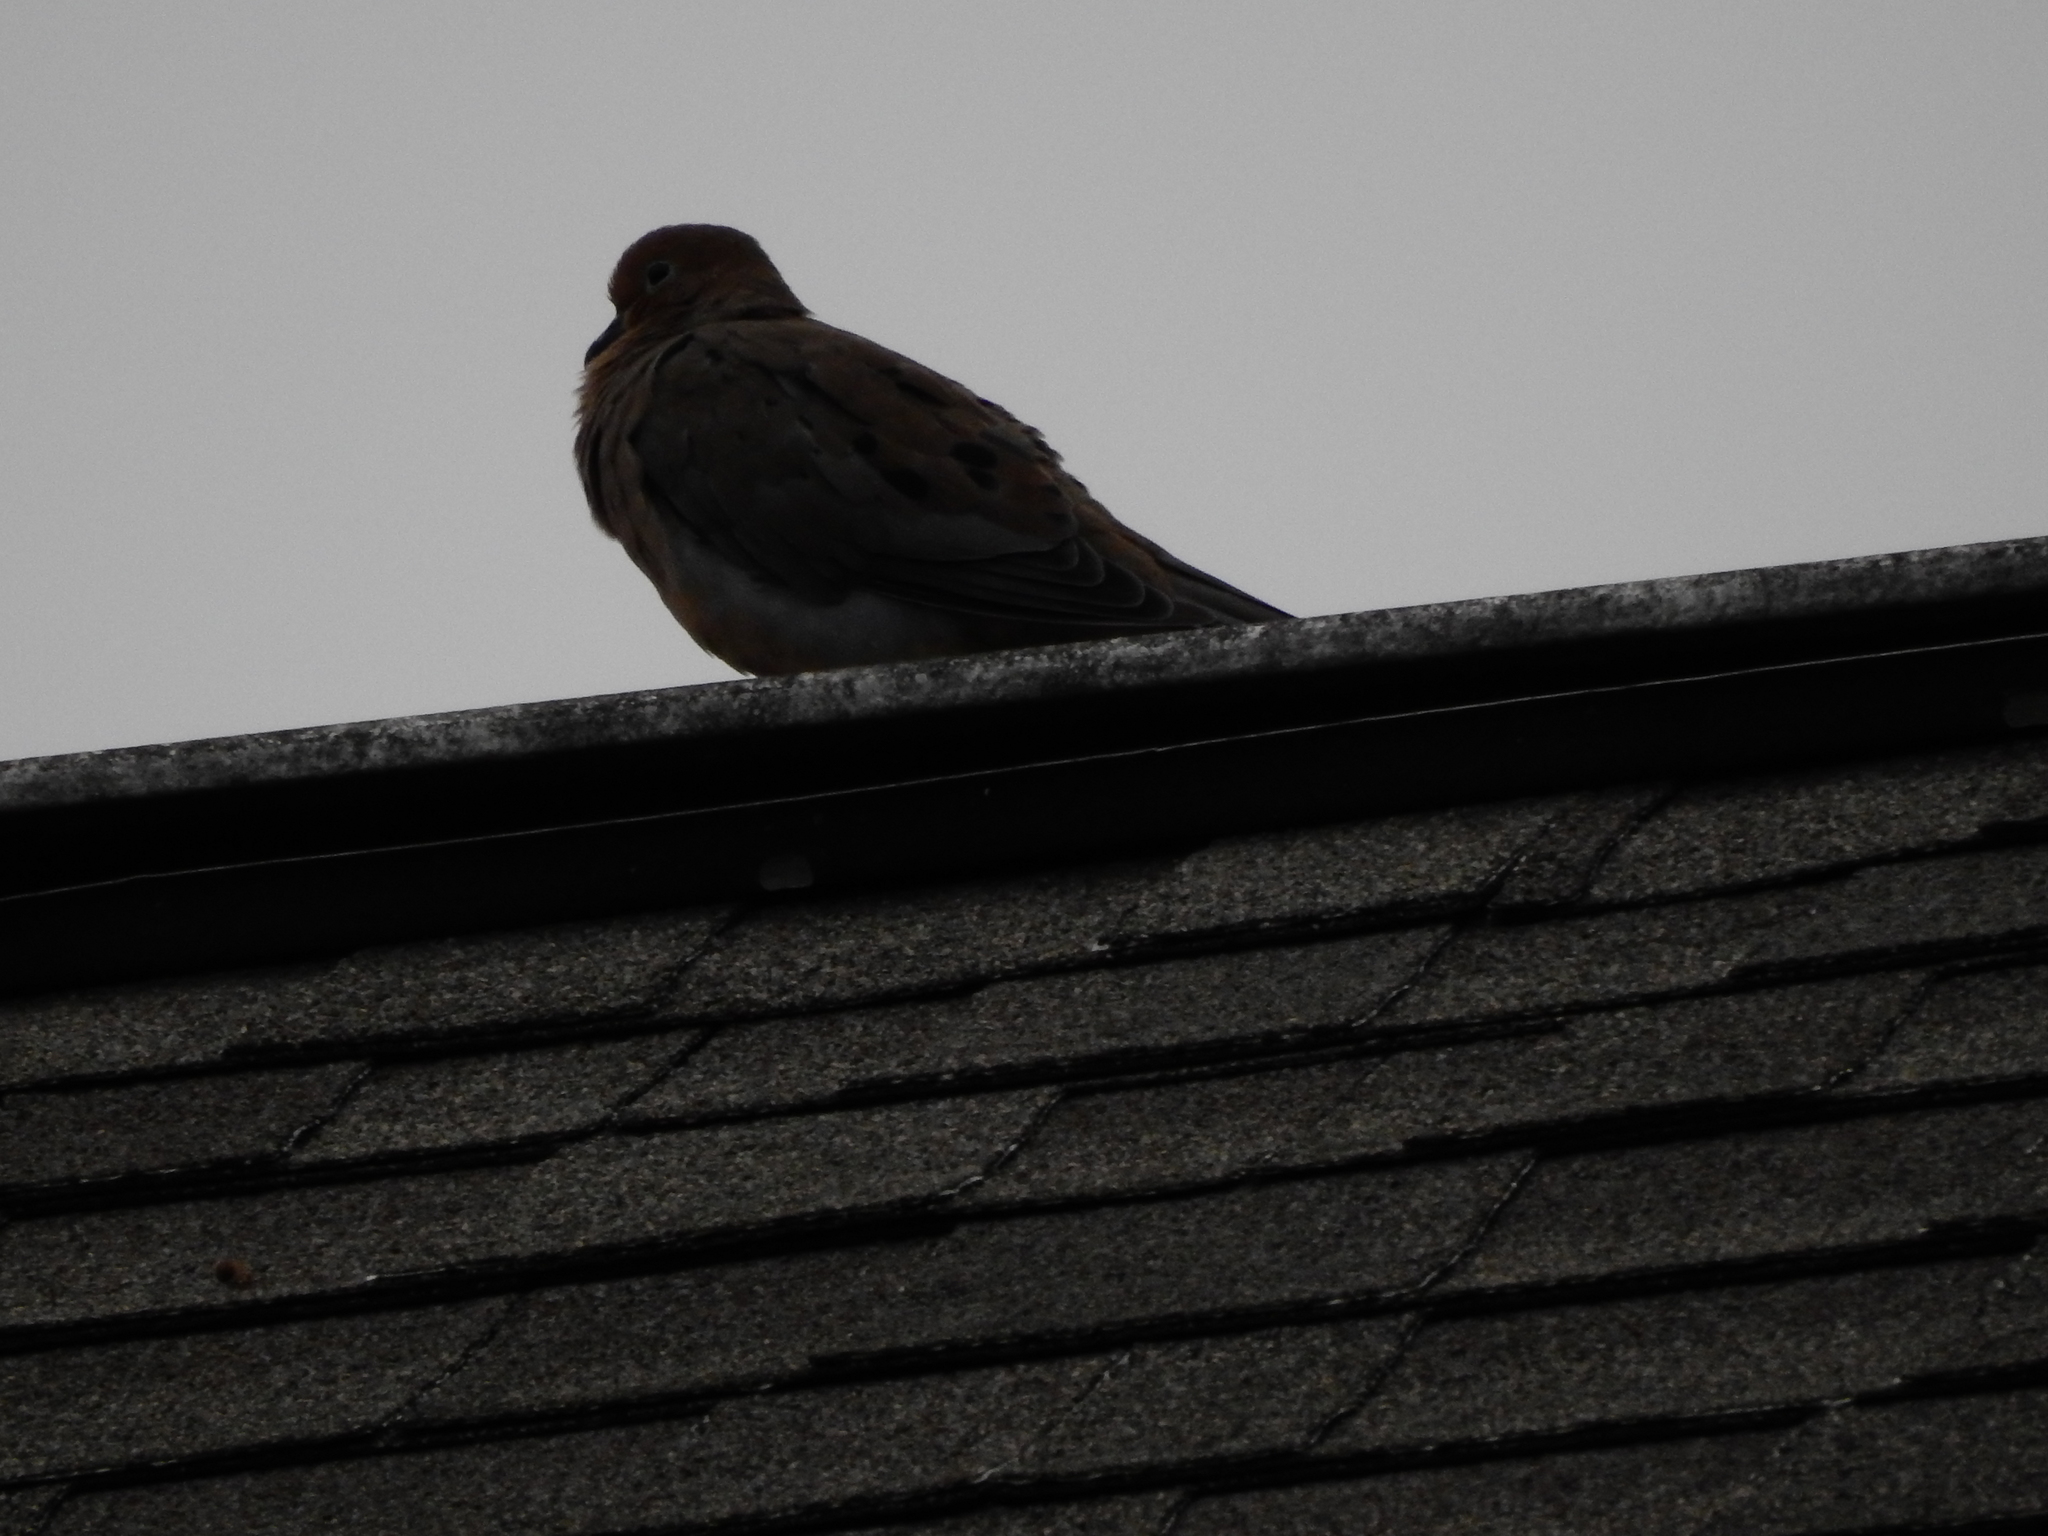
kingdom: Animalia
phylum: Chordata
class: Aves
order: Columbiformes
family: Columbidae
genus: Zenaida
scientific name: Zenaida macroura
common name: Mourning dove
